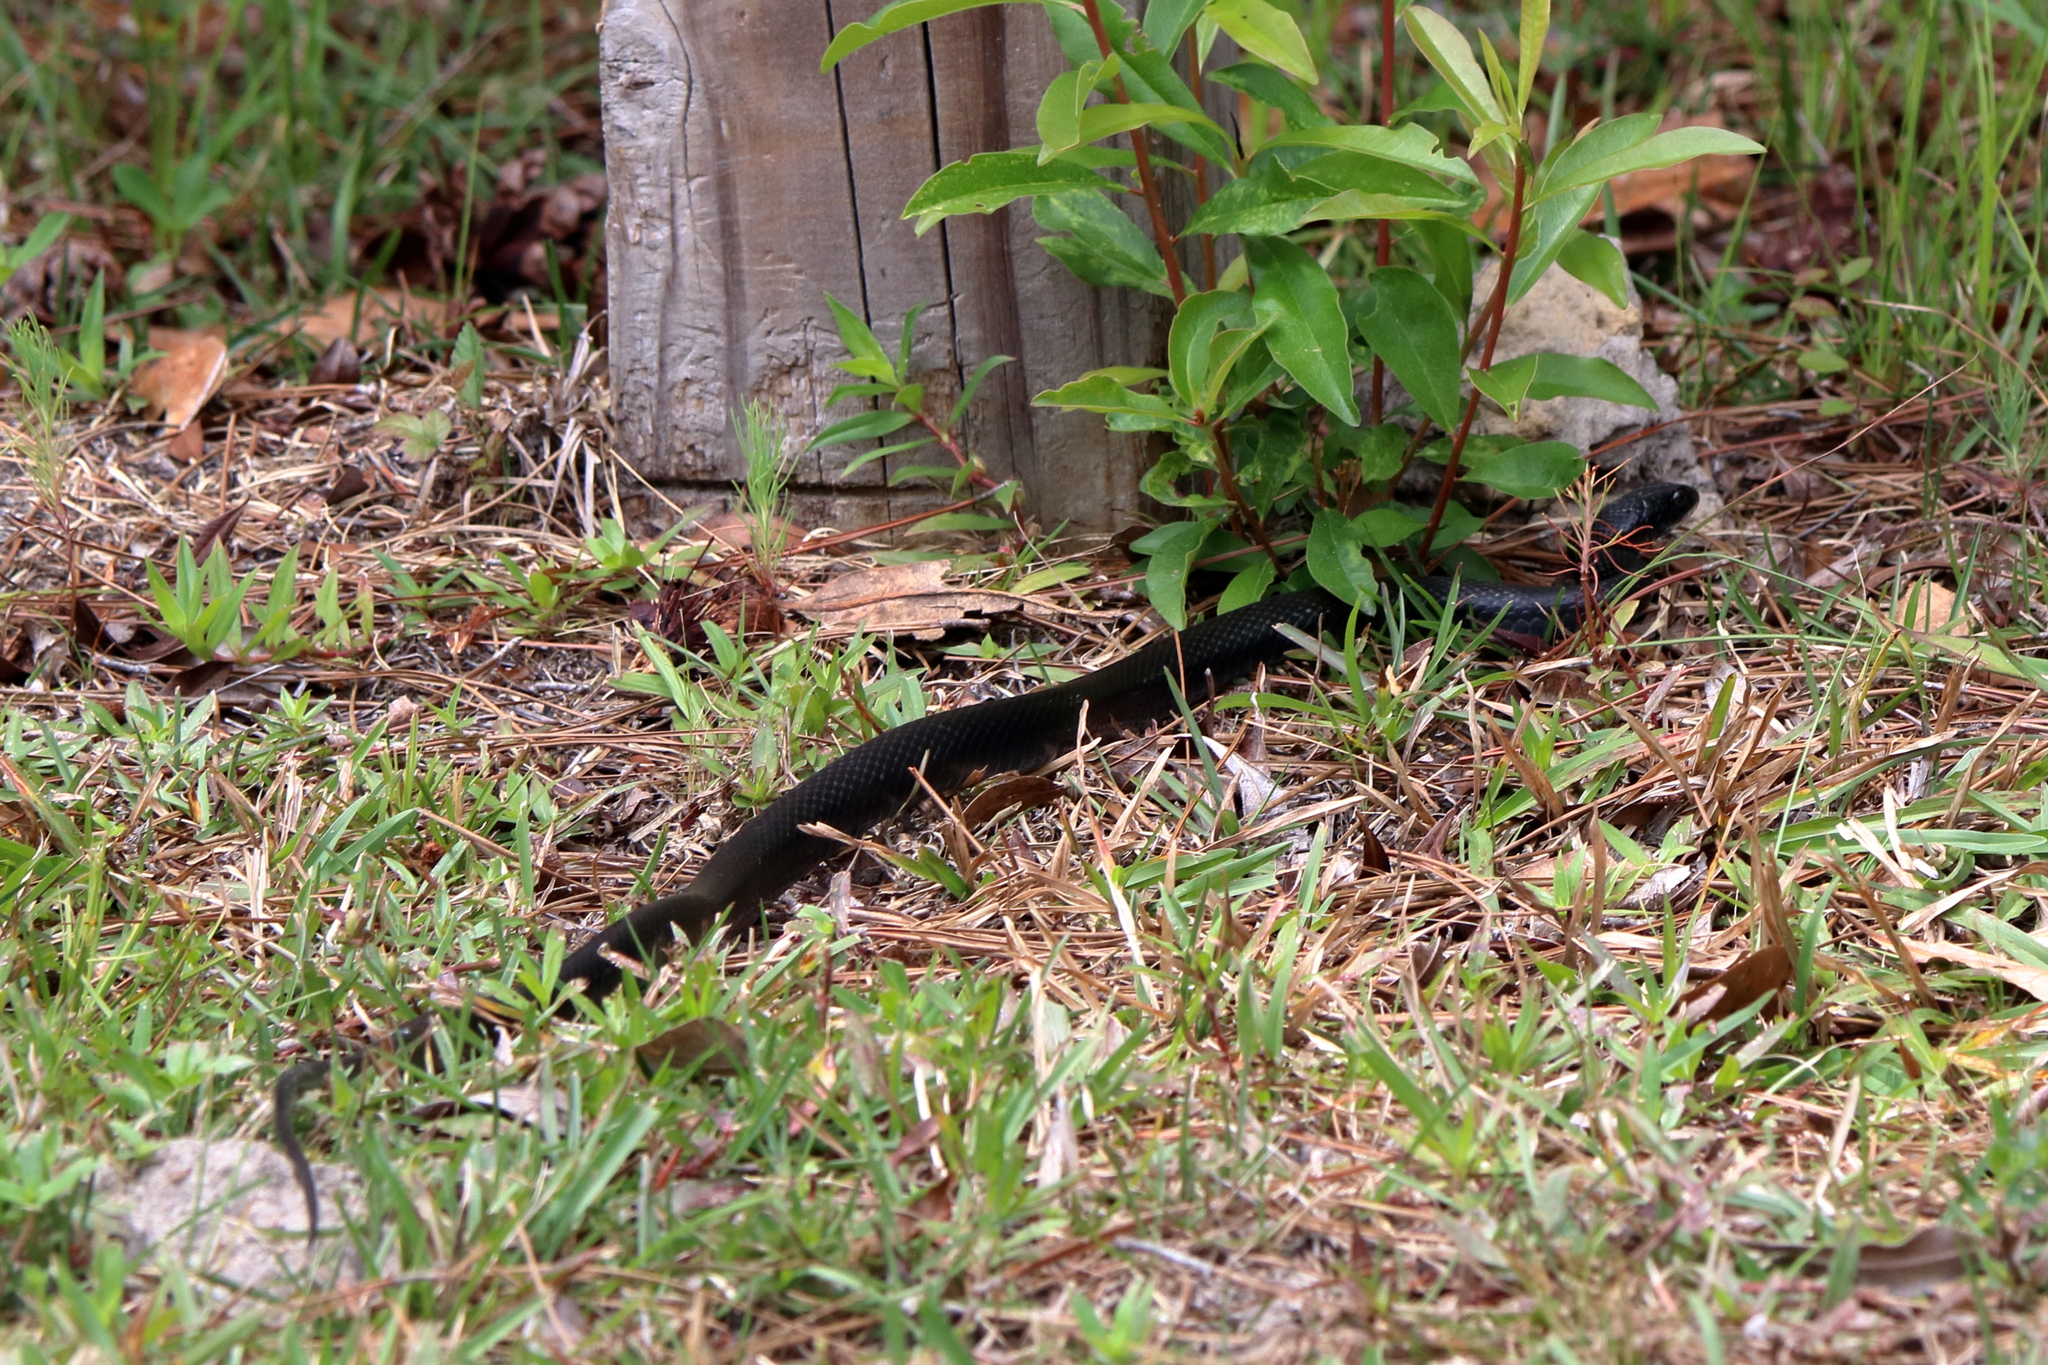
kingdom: Animalia
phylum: Chordata
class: Squamata
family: Colubridae
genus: Coluber
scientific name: Coluber constrictor
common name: Eastern racer
